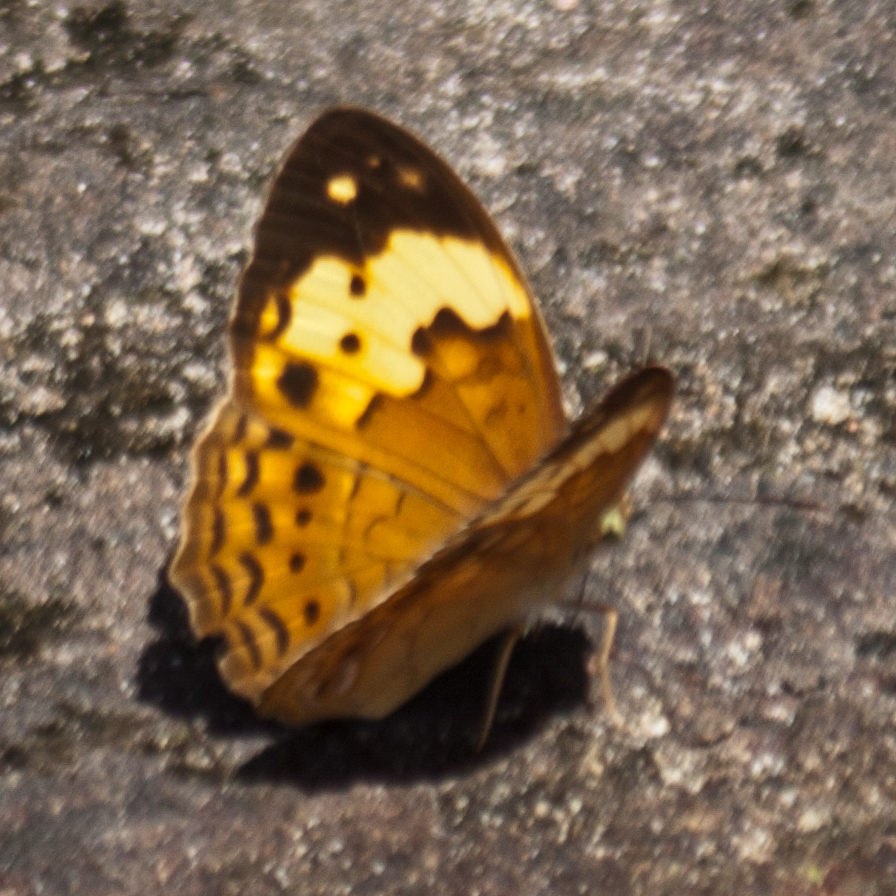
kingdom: Animalia
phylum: Arthropoda
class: Insecta
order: Lepidoptera
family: Nymphalidae
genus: Cupha
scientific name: Cupha erymanthis
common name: Rustic
